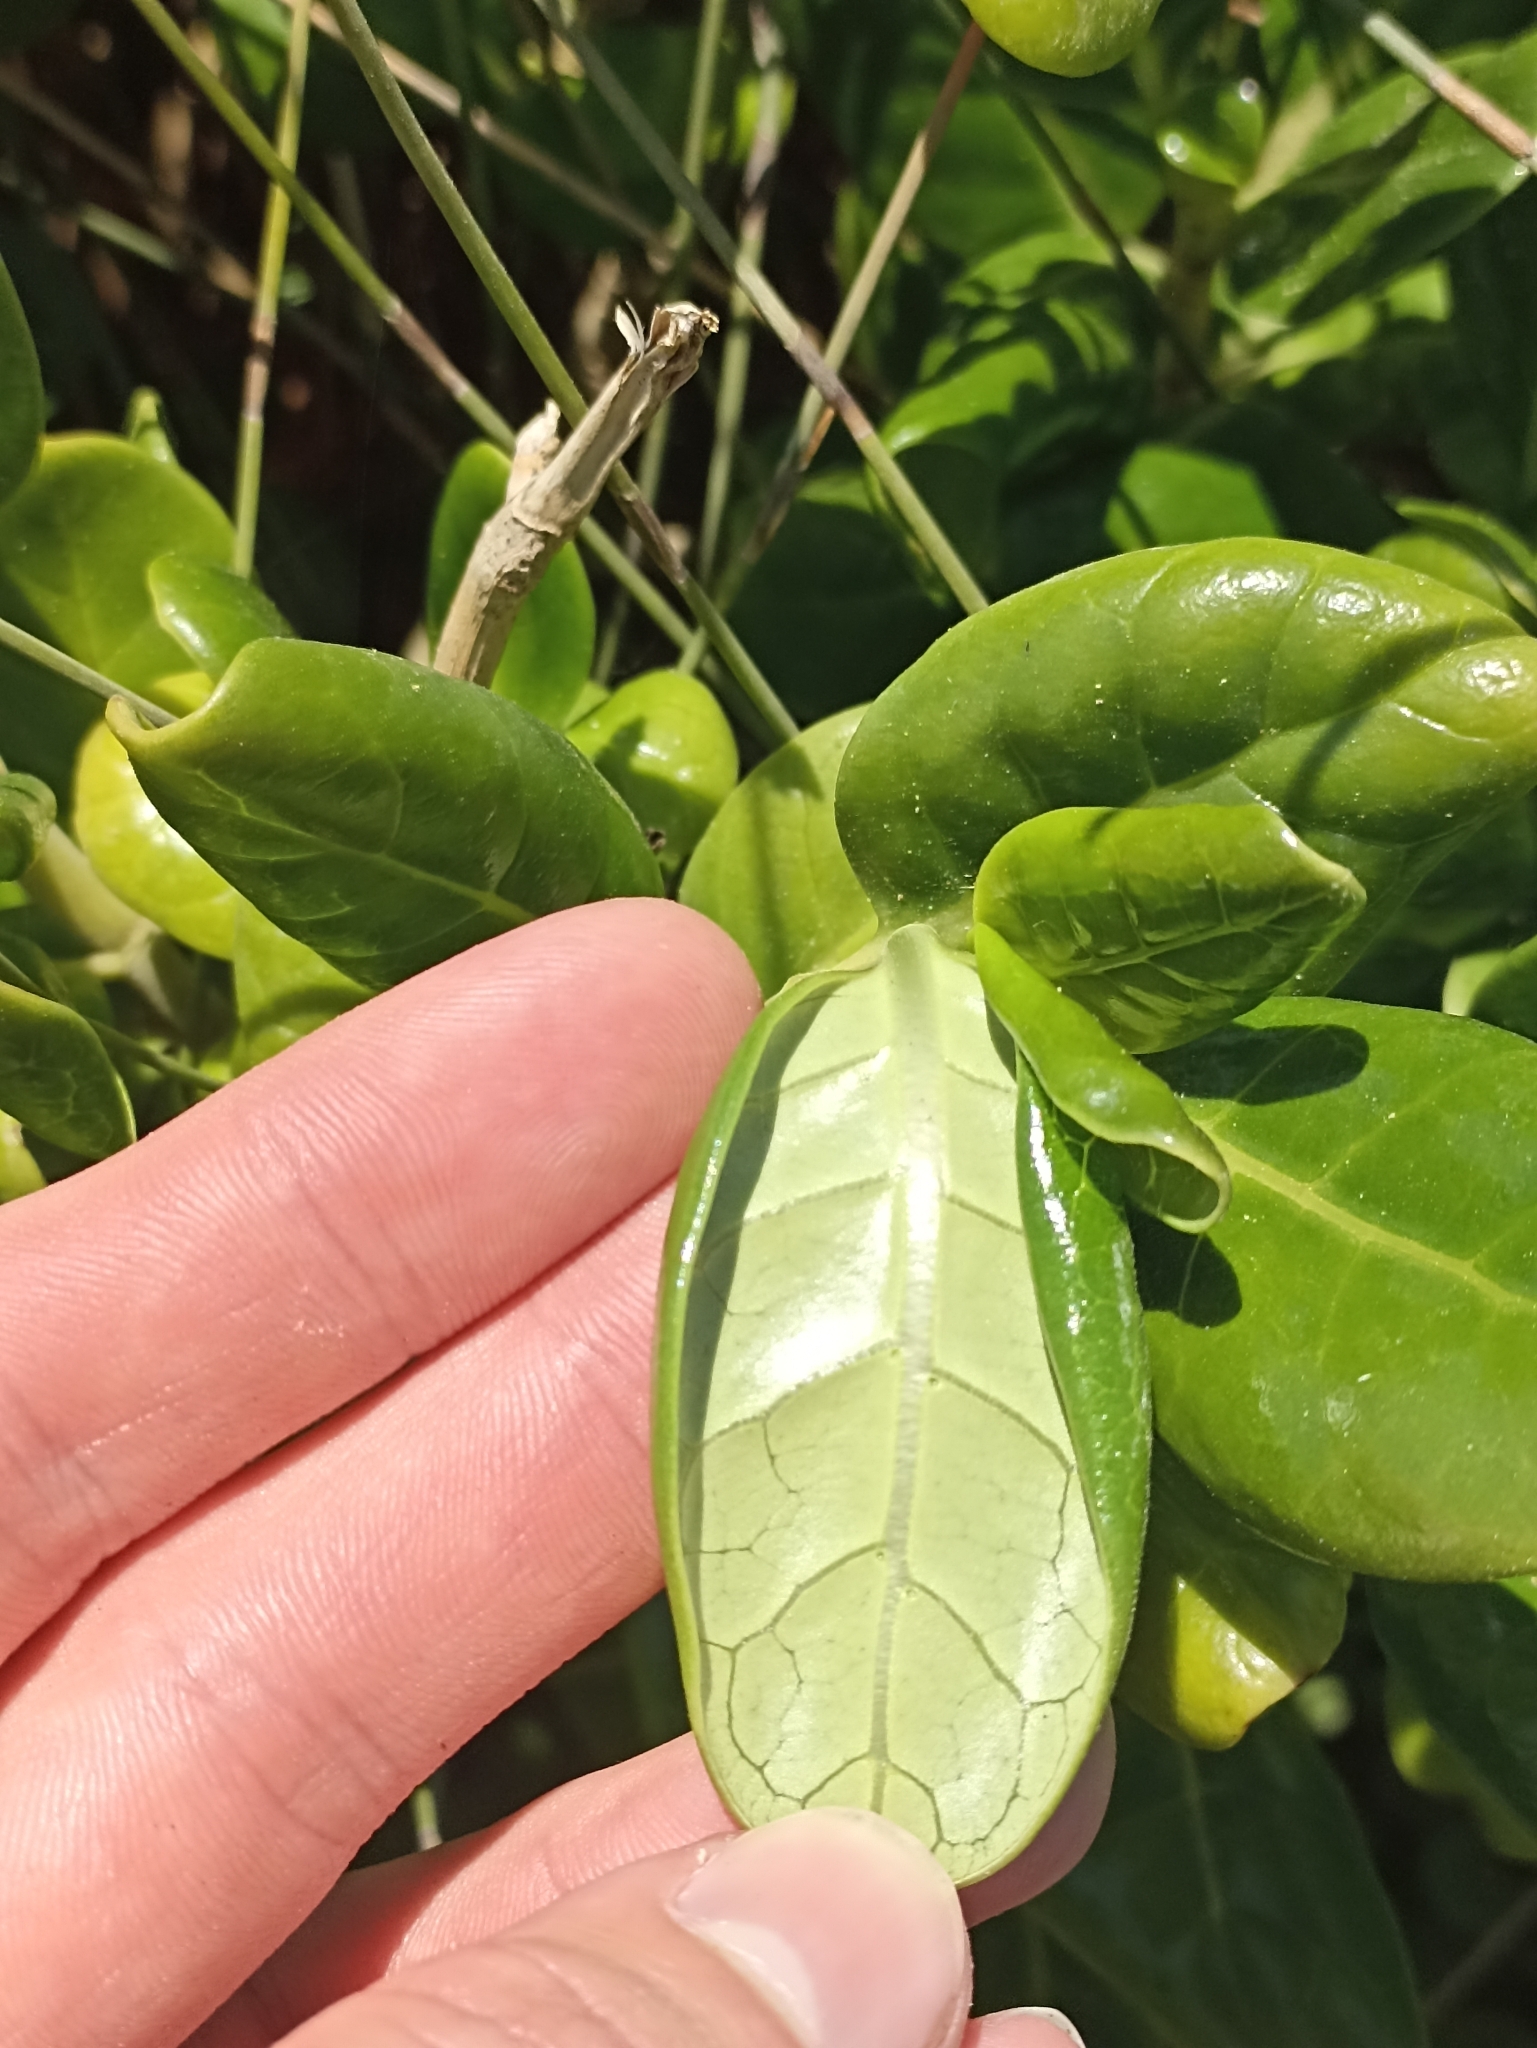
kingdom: Plantae
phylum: Tracheophyta
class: Magnoliopsida
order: Gentianales
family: Rubiaceae
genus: Coprosma
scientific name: Coprosma repens
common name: Tree bedstraw
